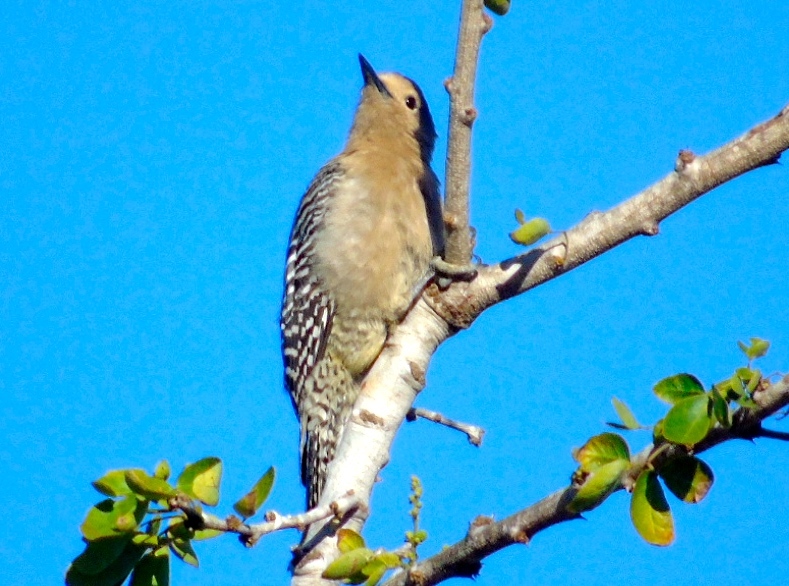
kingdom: Animalia
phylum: Chordata
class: Aves
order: Piciformes
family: Picidae
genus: Melanerpes
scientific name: Melanerpes uropygialis
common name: Gila woodpecker
